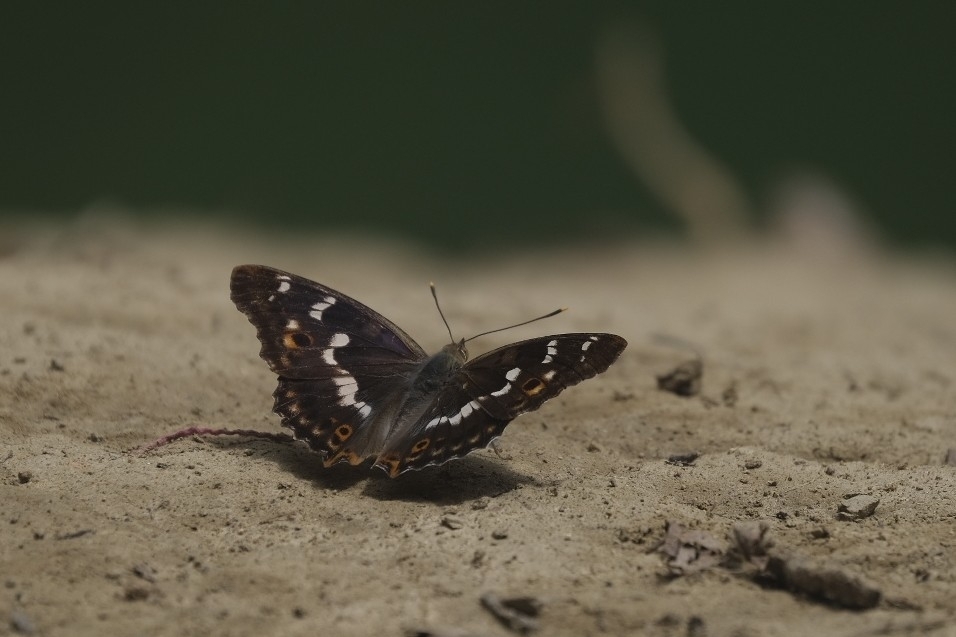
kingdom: Animalia
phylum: Arthropoda
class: Insecta
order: Lepidoptera
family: Nymphalidae
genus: Apatura
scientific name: Apatura ilia
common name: Lesser purple emperor
